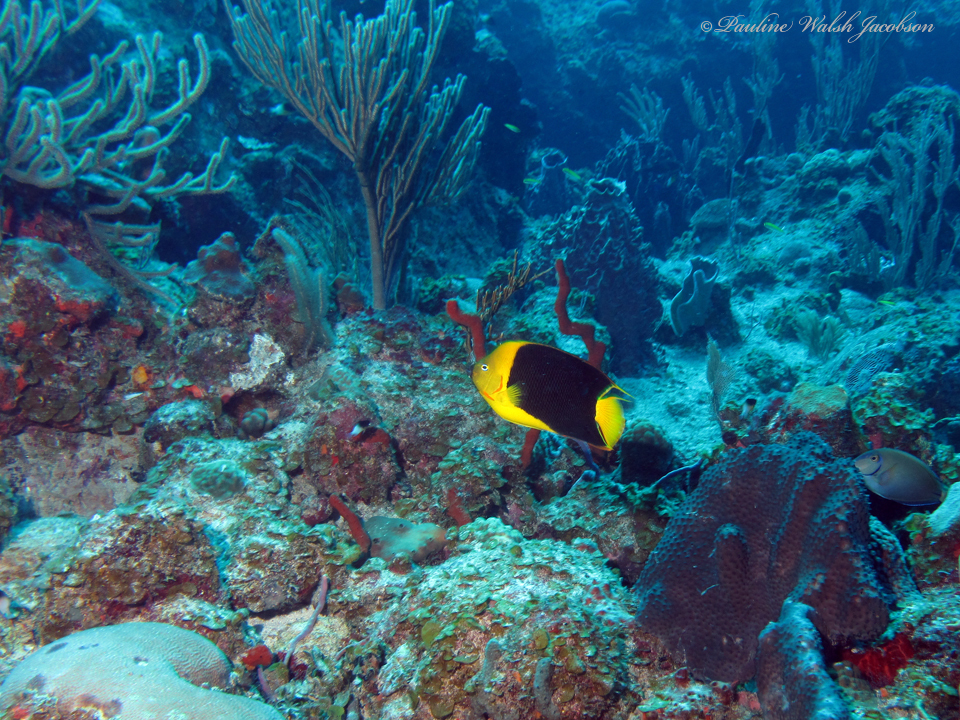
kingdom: Animalia
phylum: Chordata
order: Perciformes
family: Pomacanthidae
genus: Holacanthus
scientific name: Holacanthus tricolor
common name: Rock beauty
